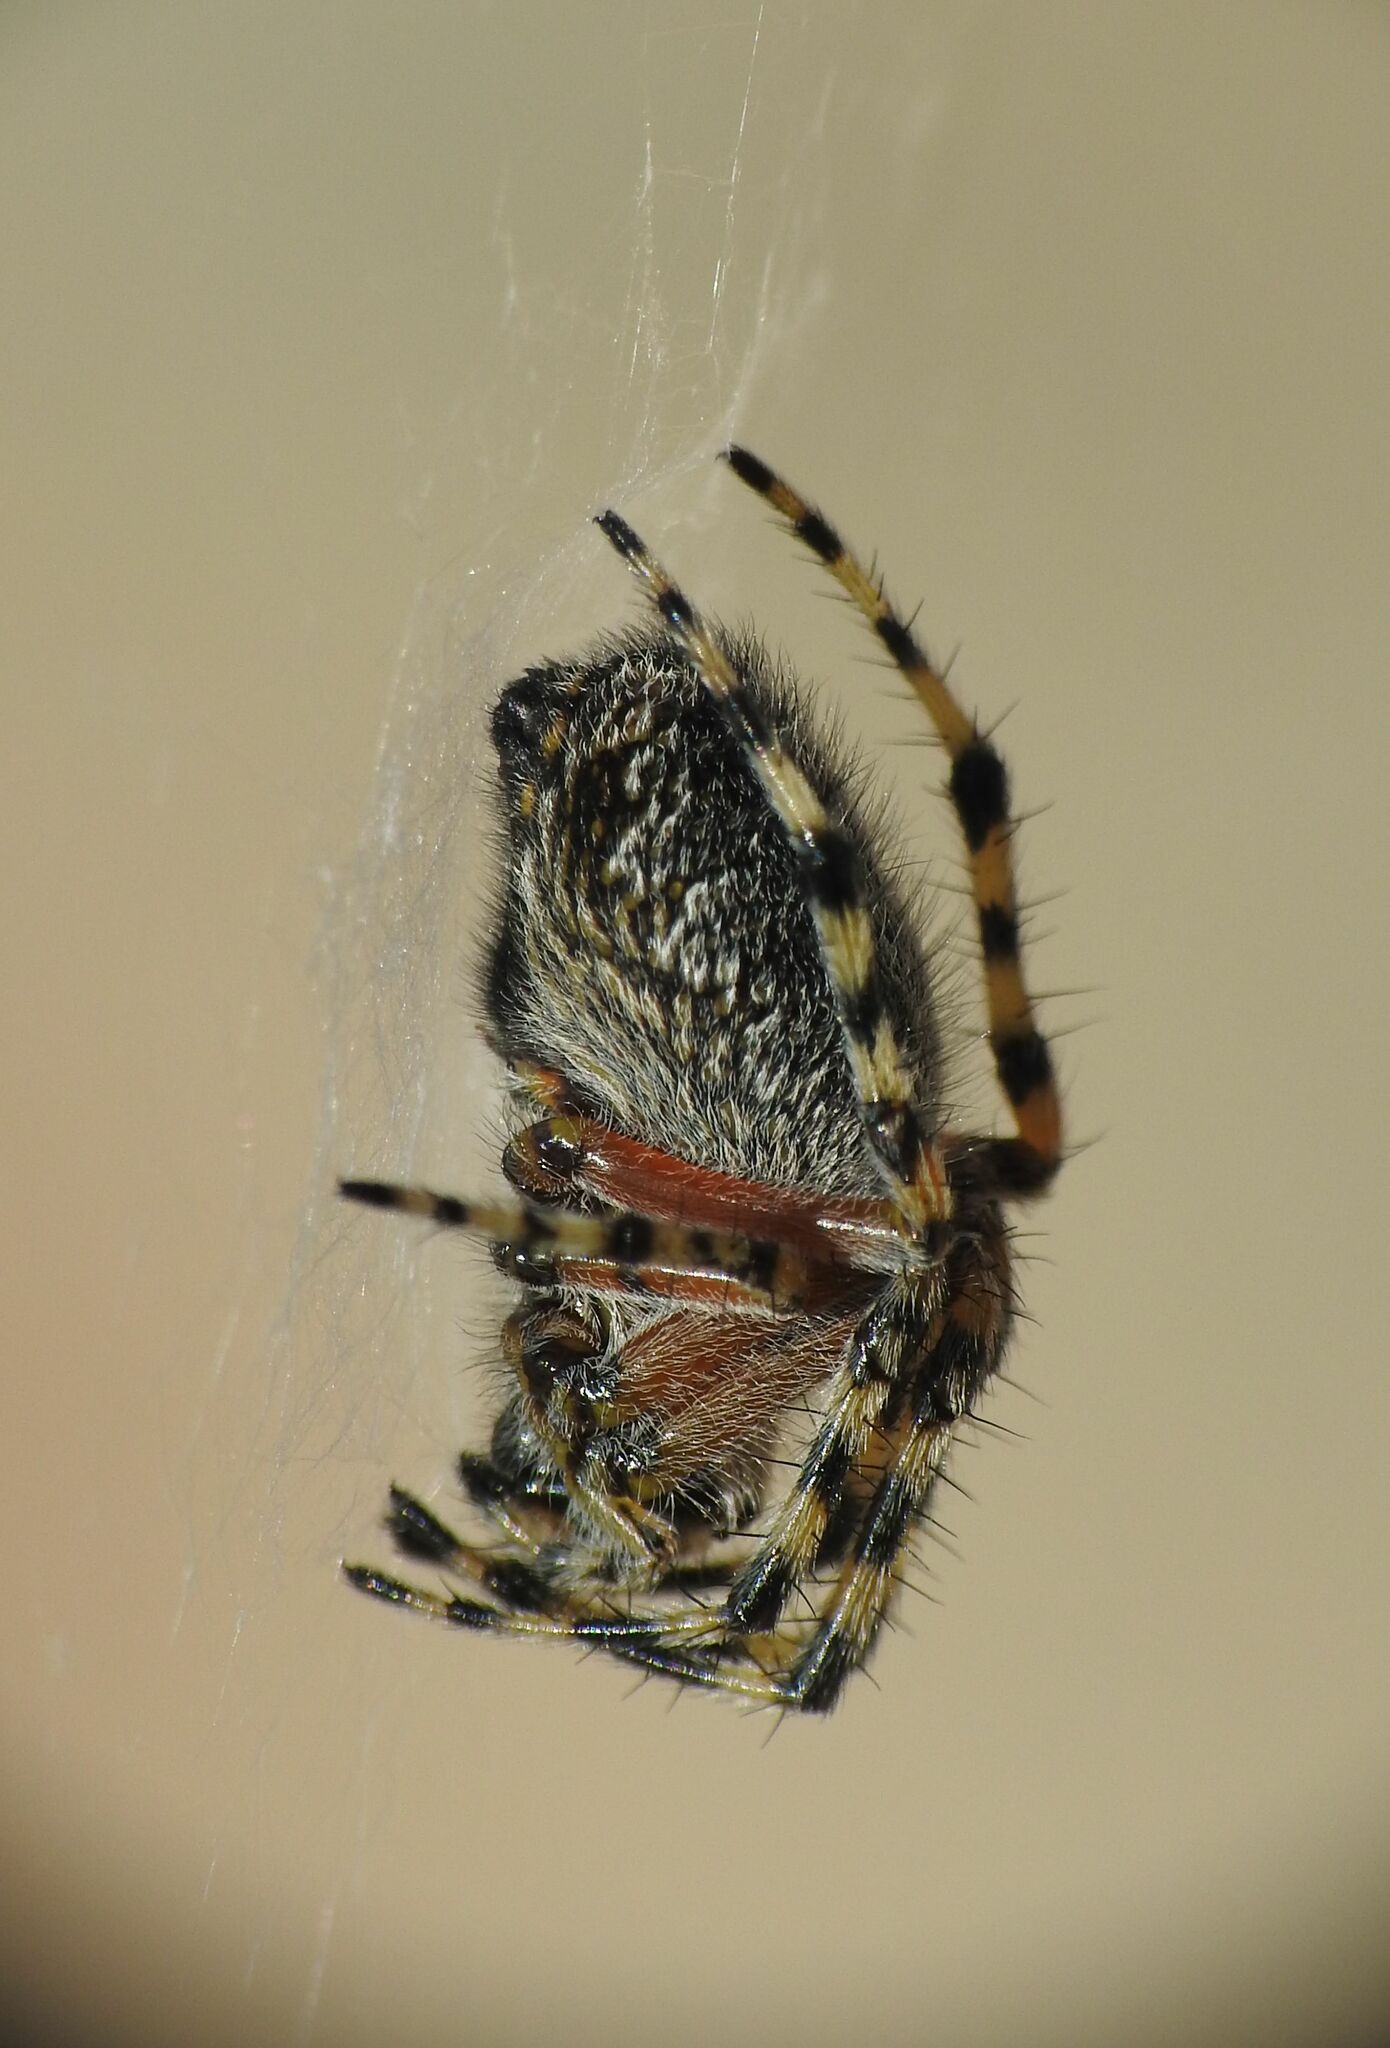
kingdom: Animalia
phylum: Arthropoda
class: Arachnida
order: Araneae
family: Araneidae
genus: Aculepeira
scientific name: Aculepeira carbonaria
